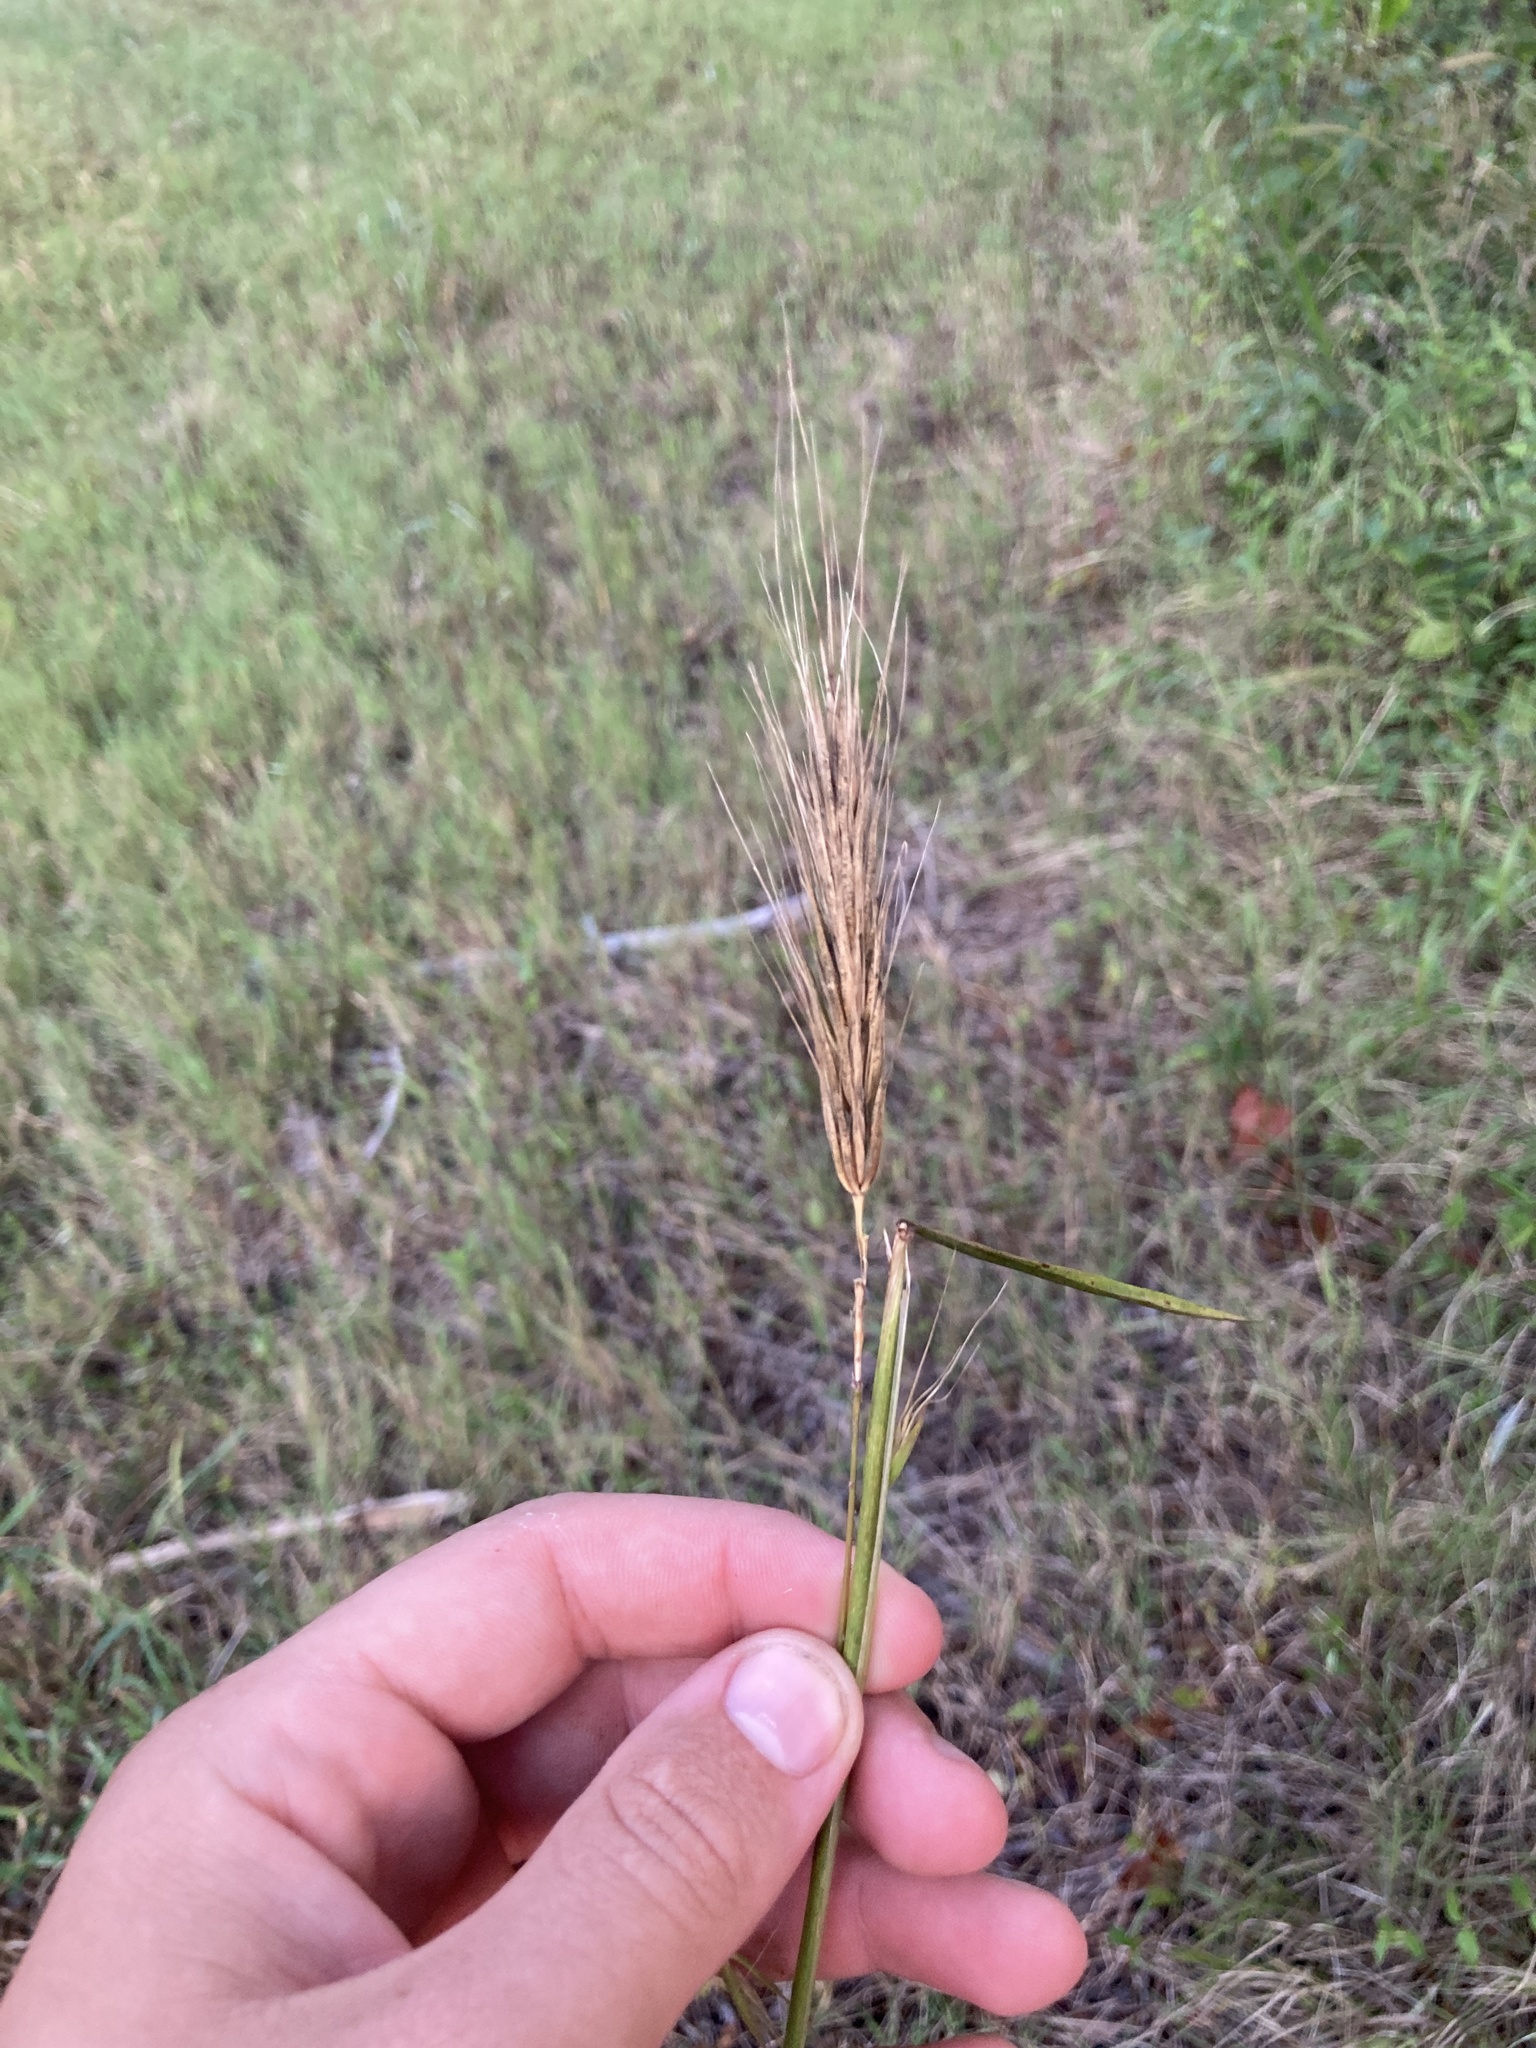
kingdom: Plantae
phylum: Tracheophyta
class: Liliopsida
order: Poales
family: Poaceae
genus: Elymus
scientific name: Elymus virginicus
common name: Common eastern wildrye
